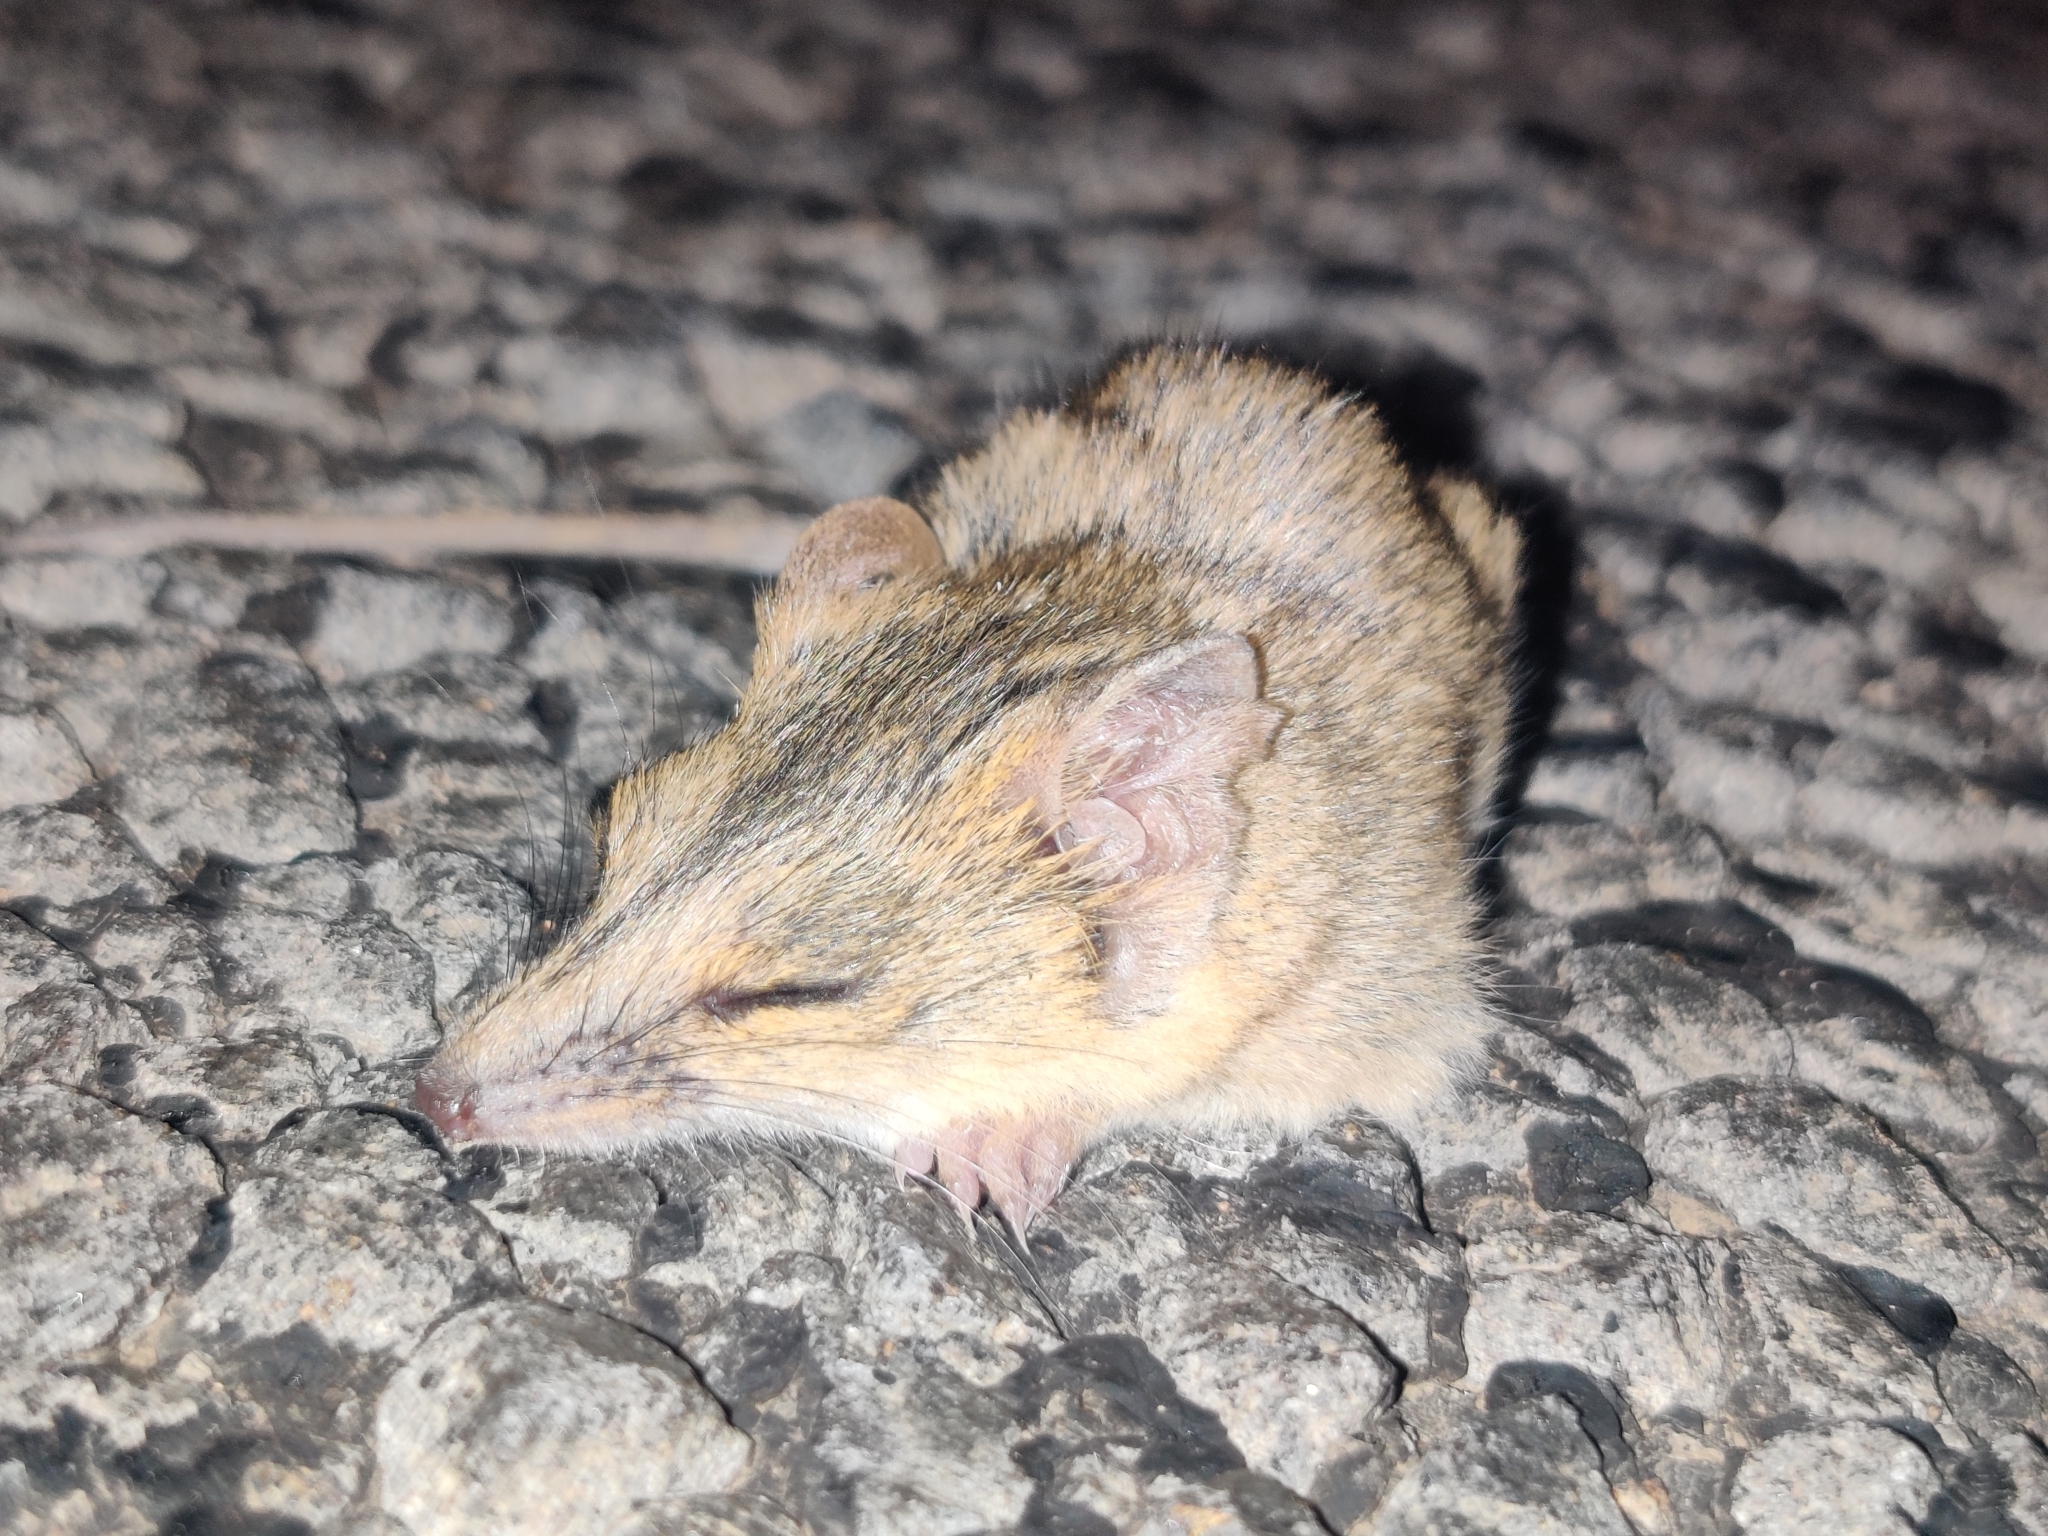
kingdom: Animalia
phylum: Chordata
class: Mammalia
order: Dasyuromorphia
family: Dasyuridae
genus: Sminthopsis
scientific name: Sminthopsis macroura
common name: Stripe-faced dunnart
